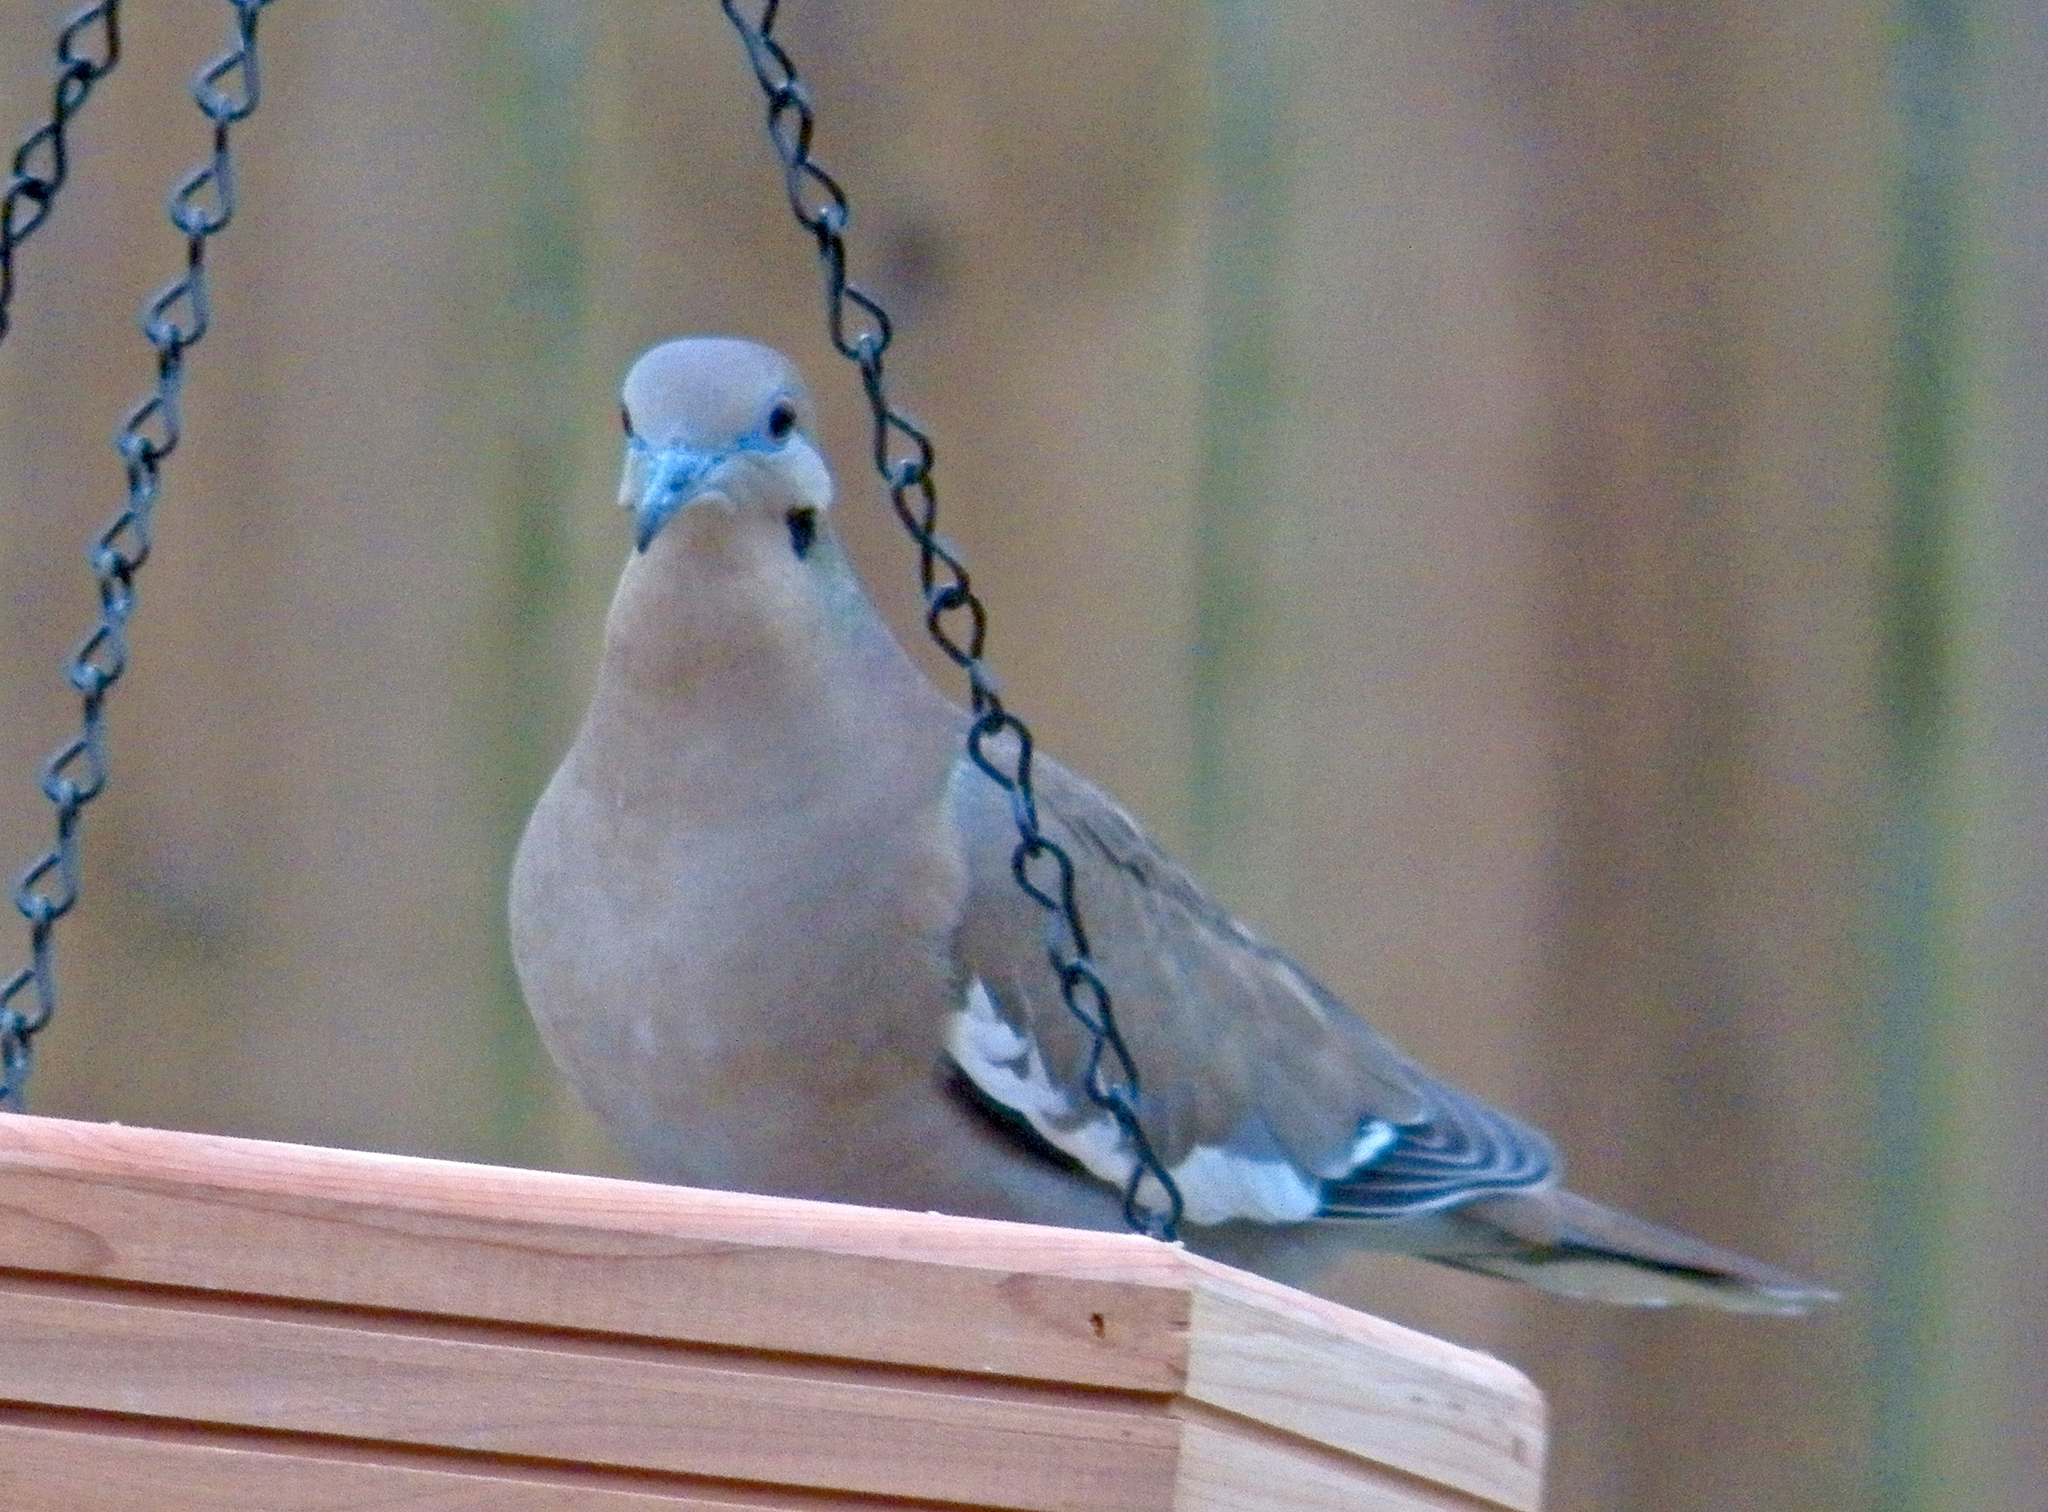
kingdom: Animalia
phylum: Chordata
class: Aves
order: Columbiformes
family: Columbidae
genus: Zenaida
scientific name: Zenaida asiatica
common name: White-winged dove
